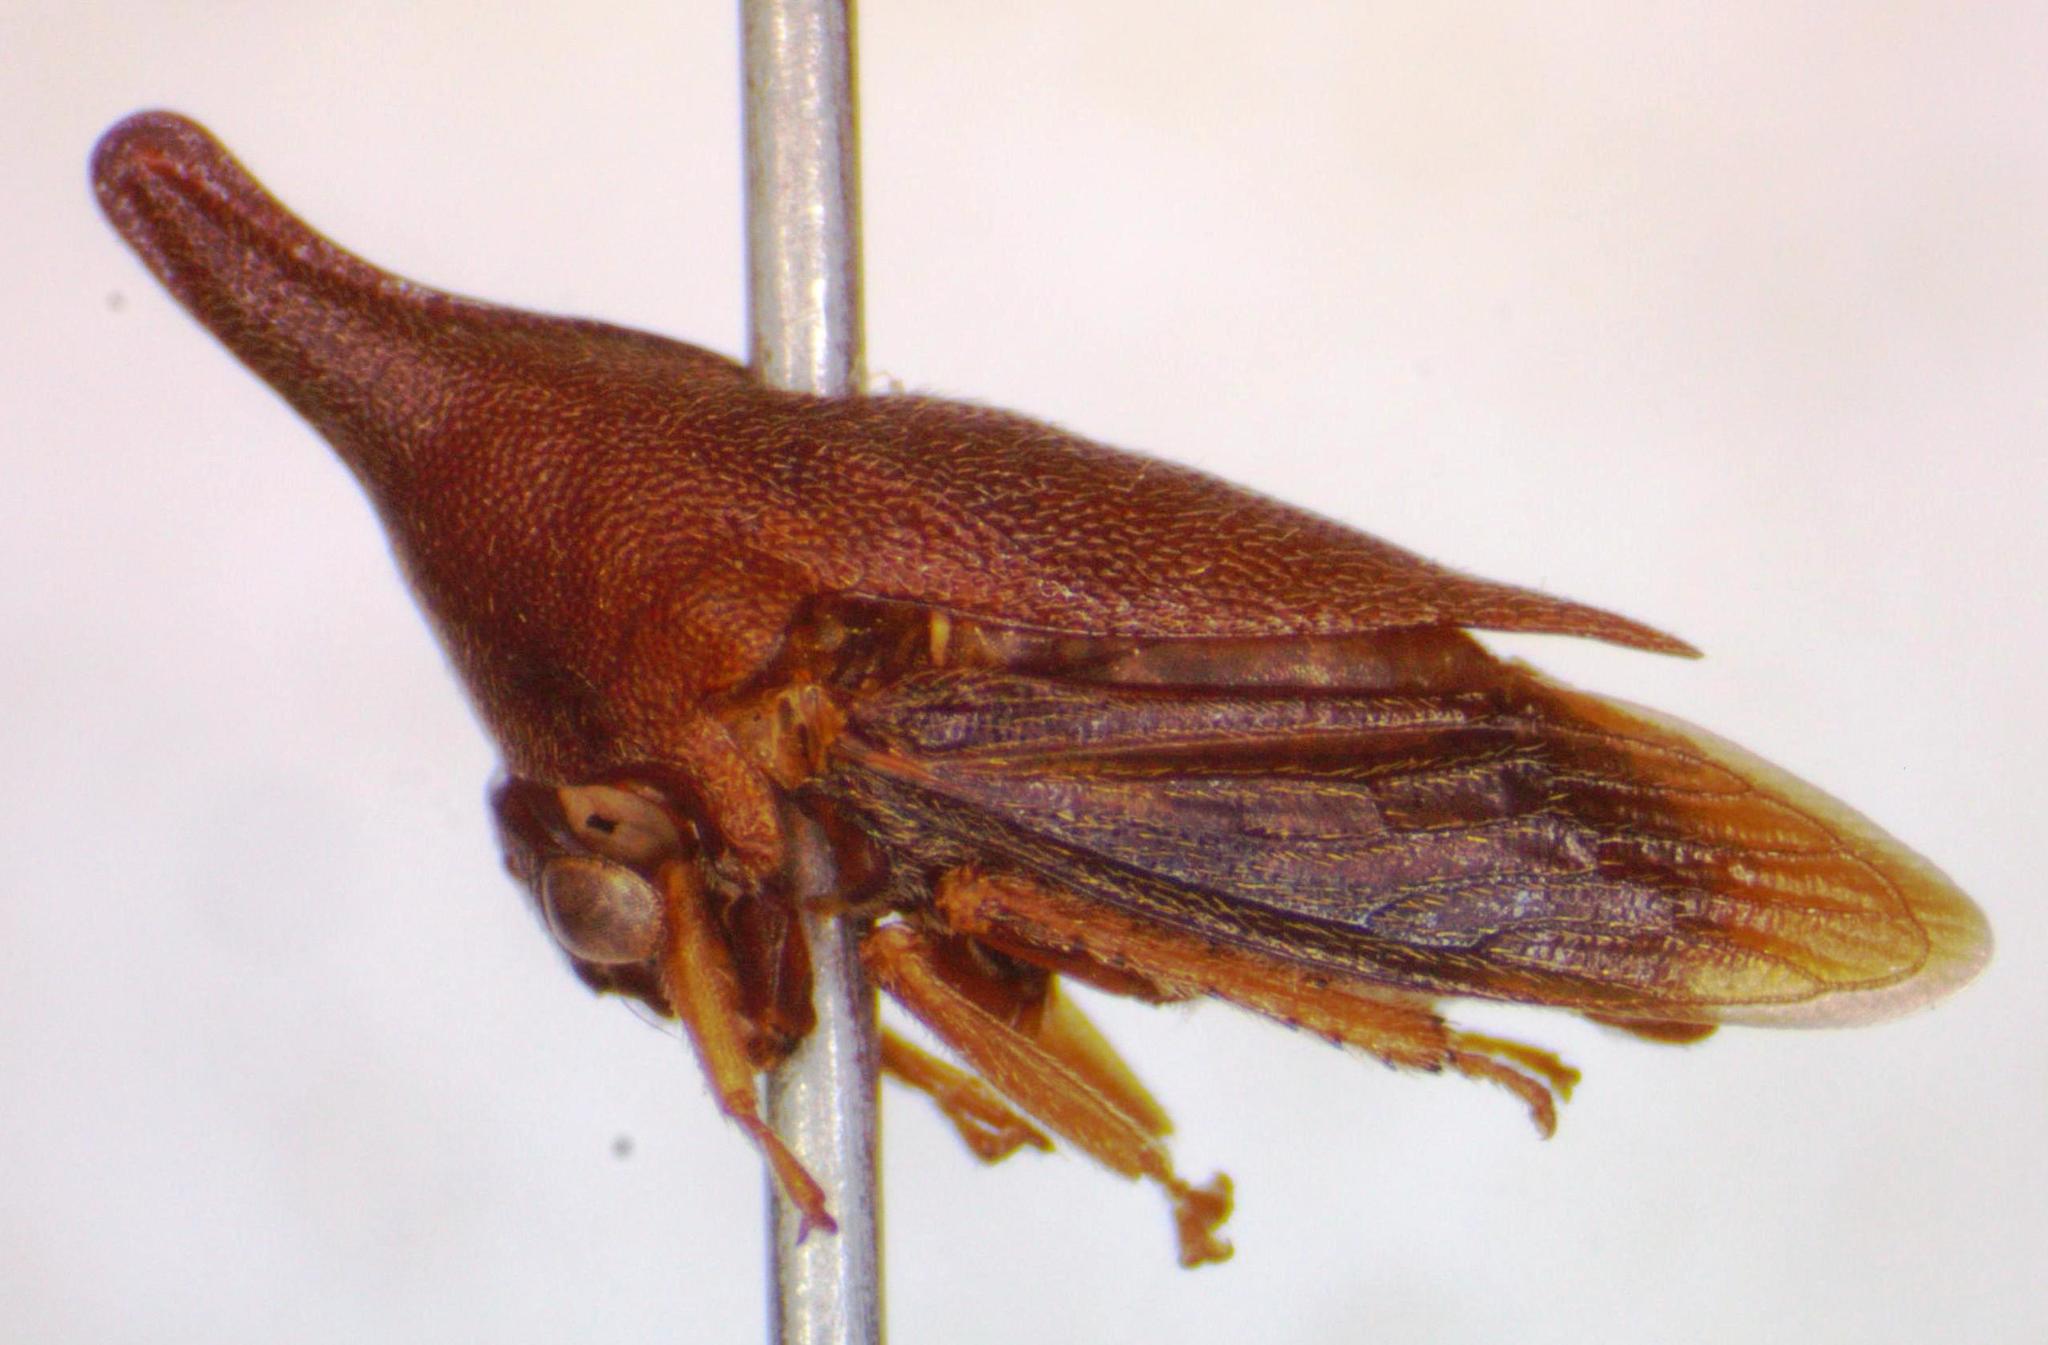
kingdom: Animalia
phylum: Arthropoda
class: Insecta
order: Hemiptera
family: Membracidae
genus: Guayaquila
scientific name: Guayaquila gracilicornis
